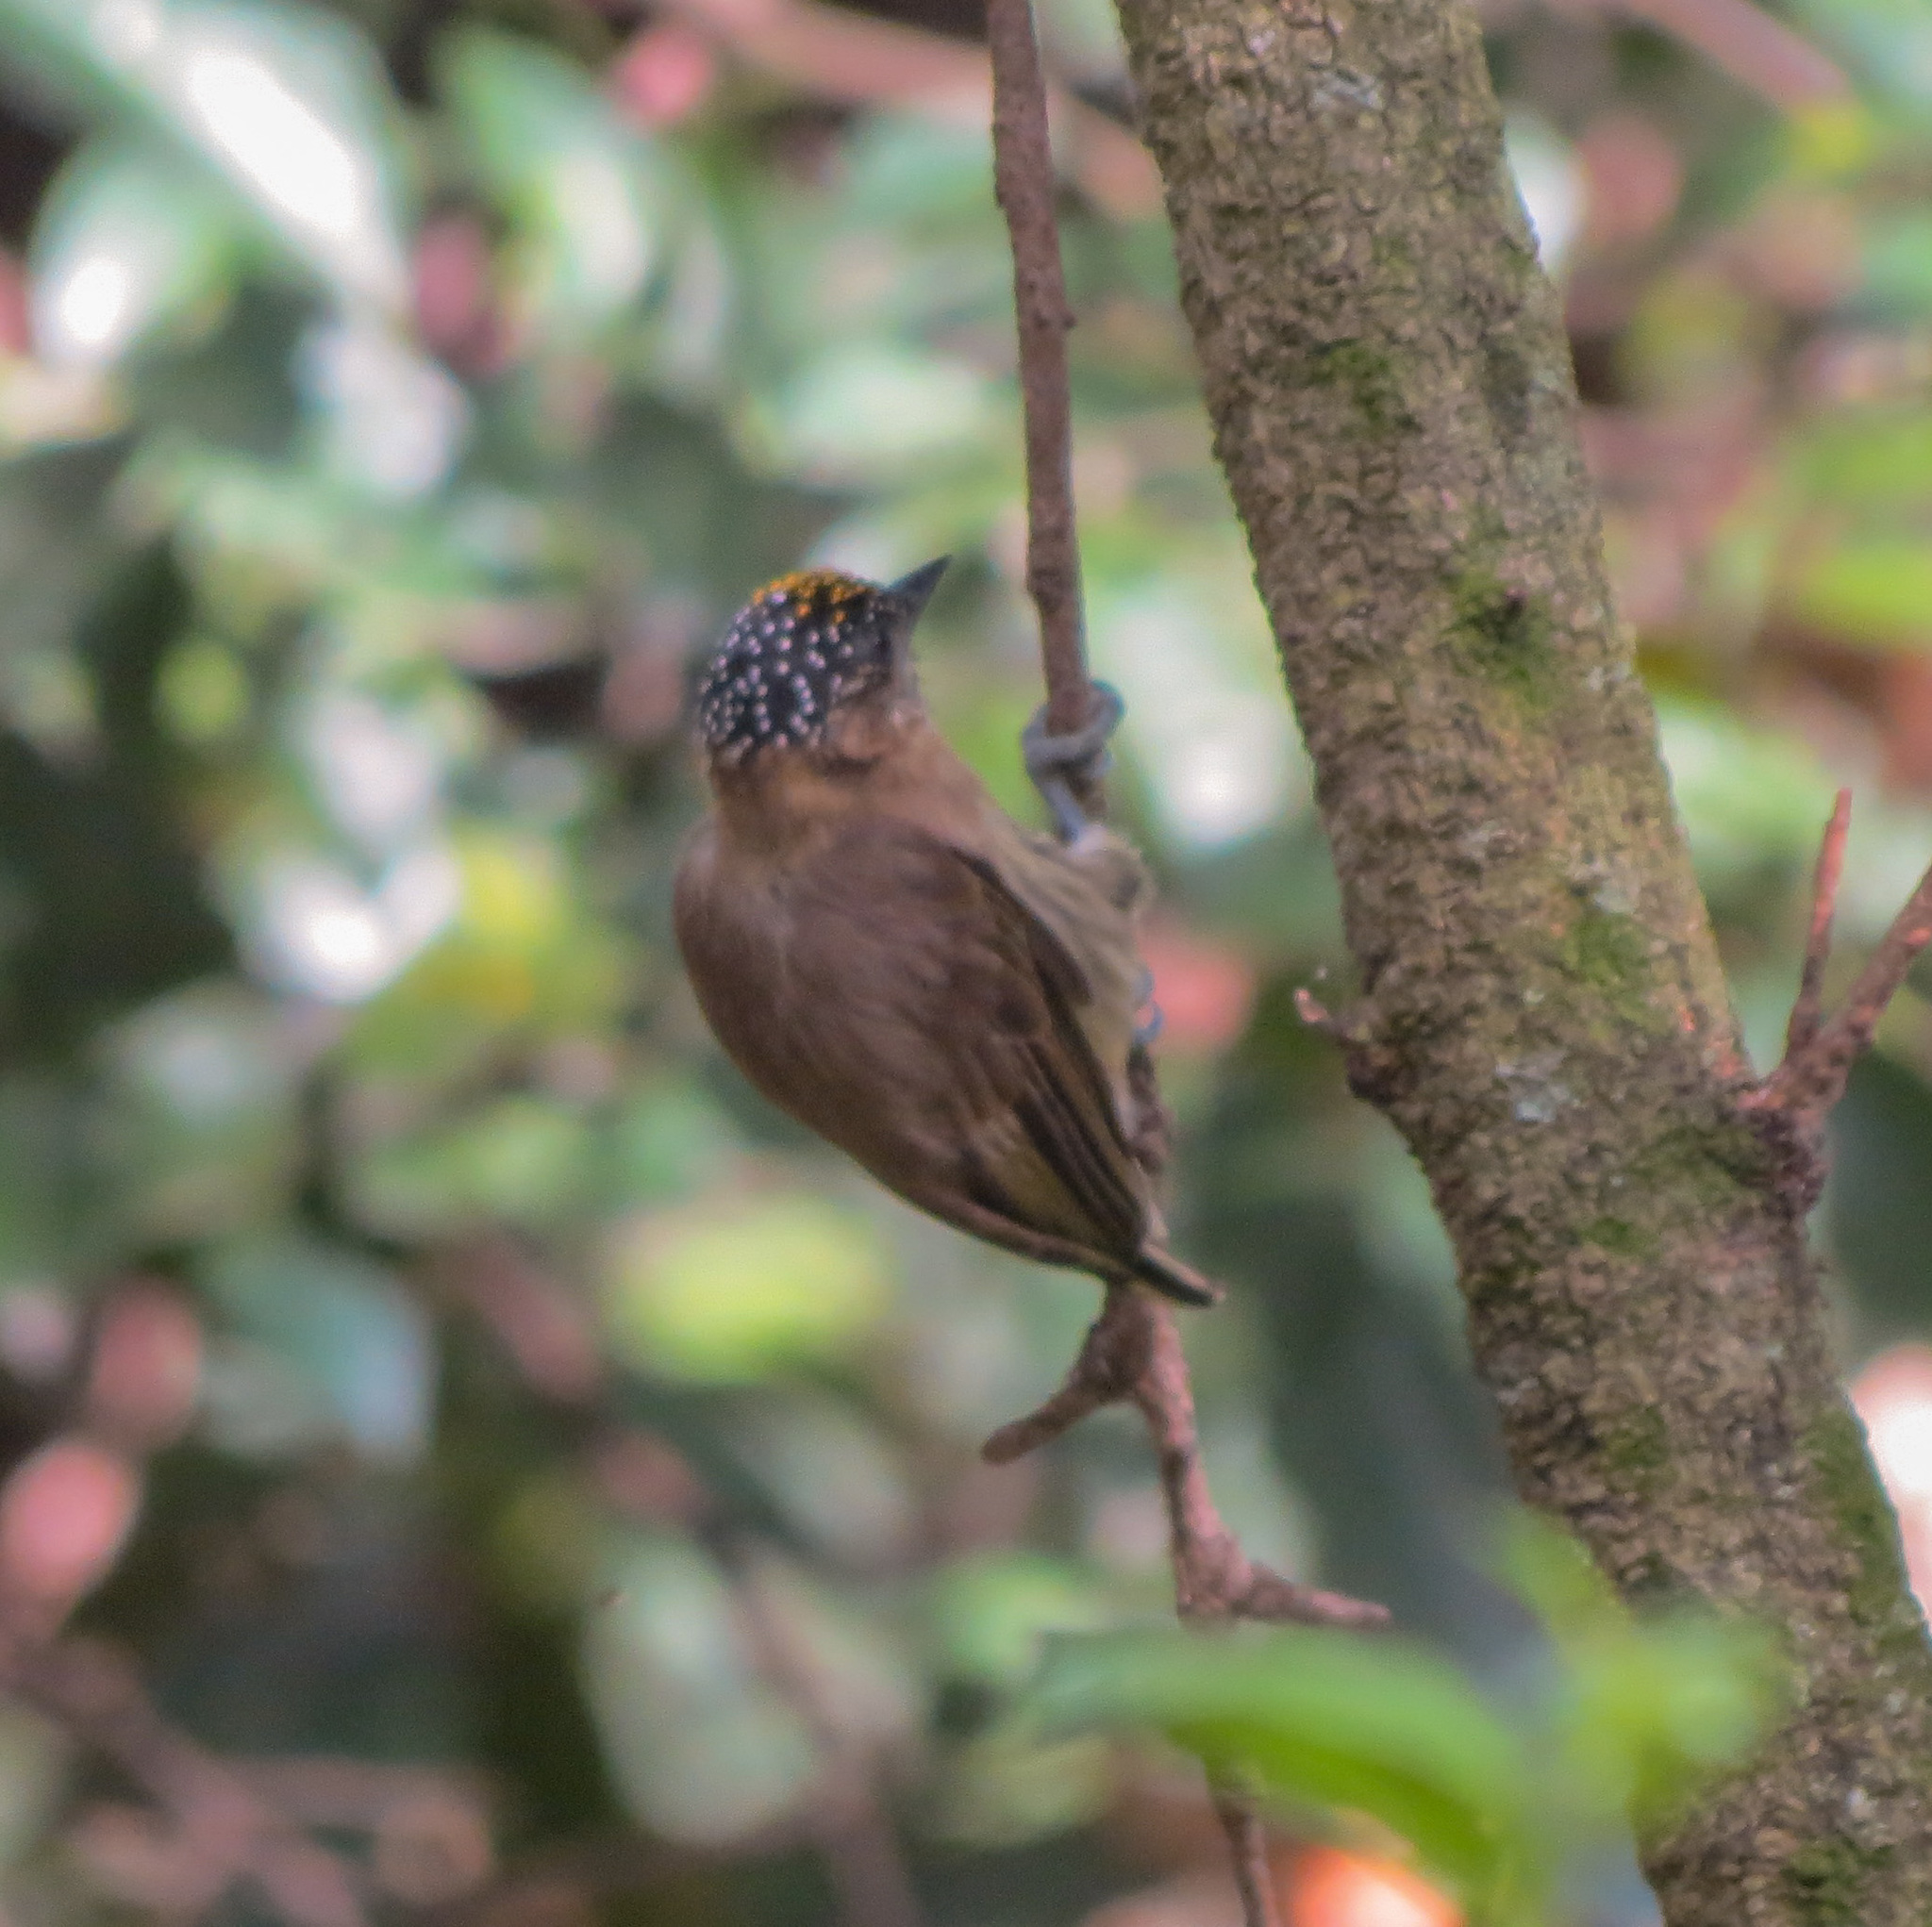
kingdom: Animalia
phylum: Chordata
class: Aves
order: Piciformes
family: Picidae
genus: Picumnus
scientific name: Picumnus olivaceus
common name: Olivaceous piculet
